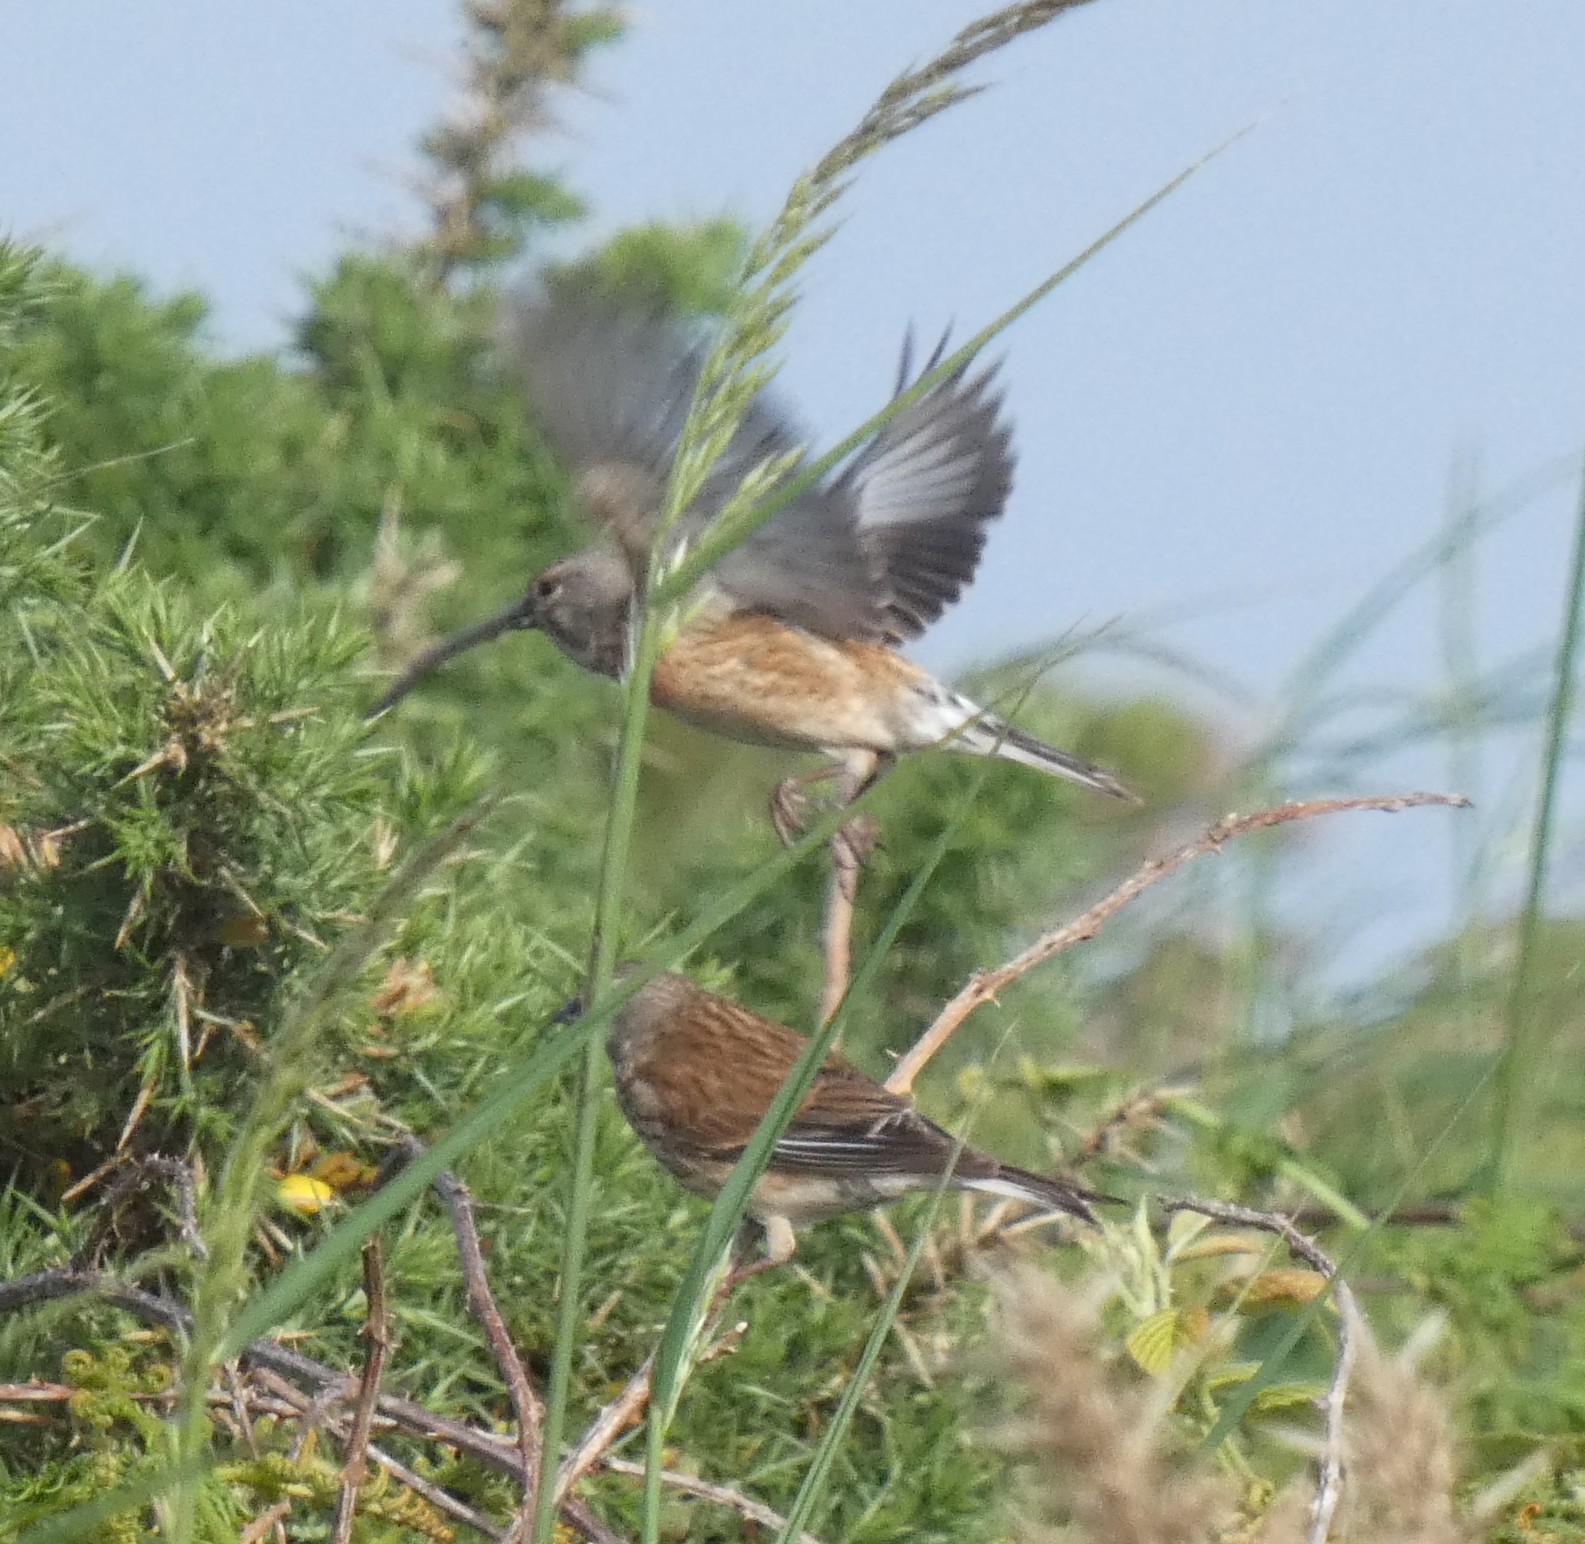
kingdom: Animalia
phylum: Chordata
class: Aves
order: Passeriformes
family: Fringillidae
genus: Linaria
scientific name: Linaria cannabina
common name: Common linnet
